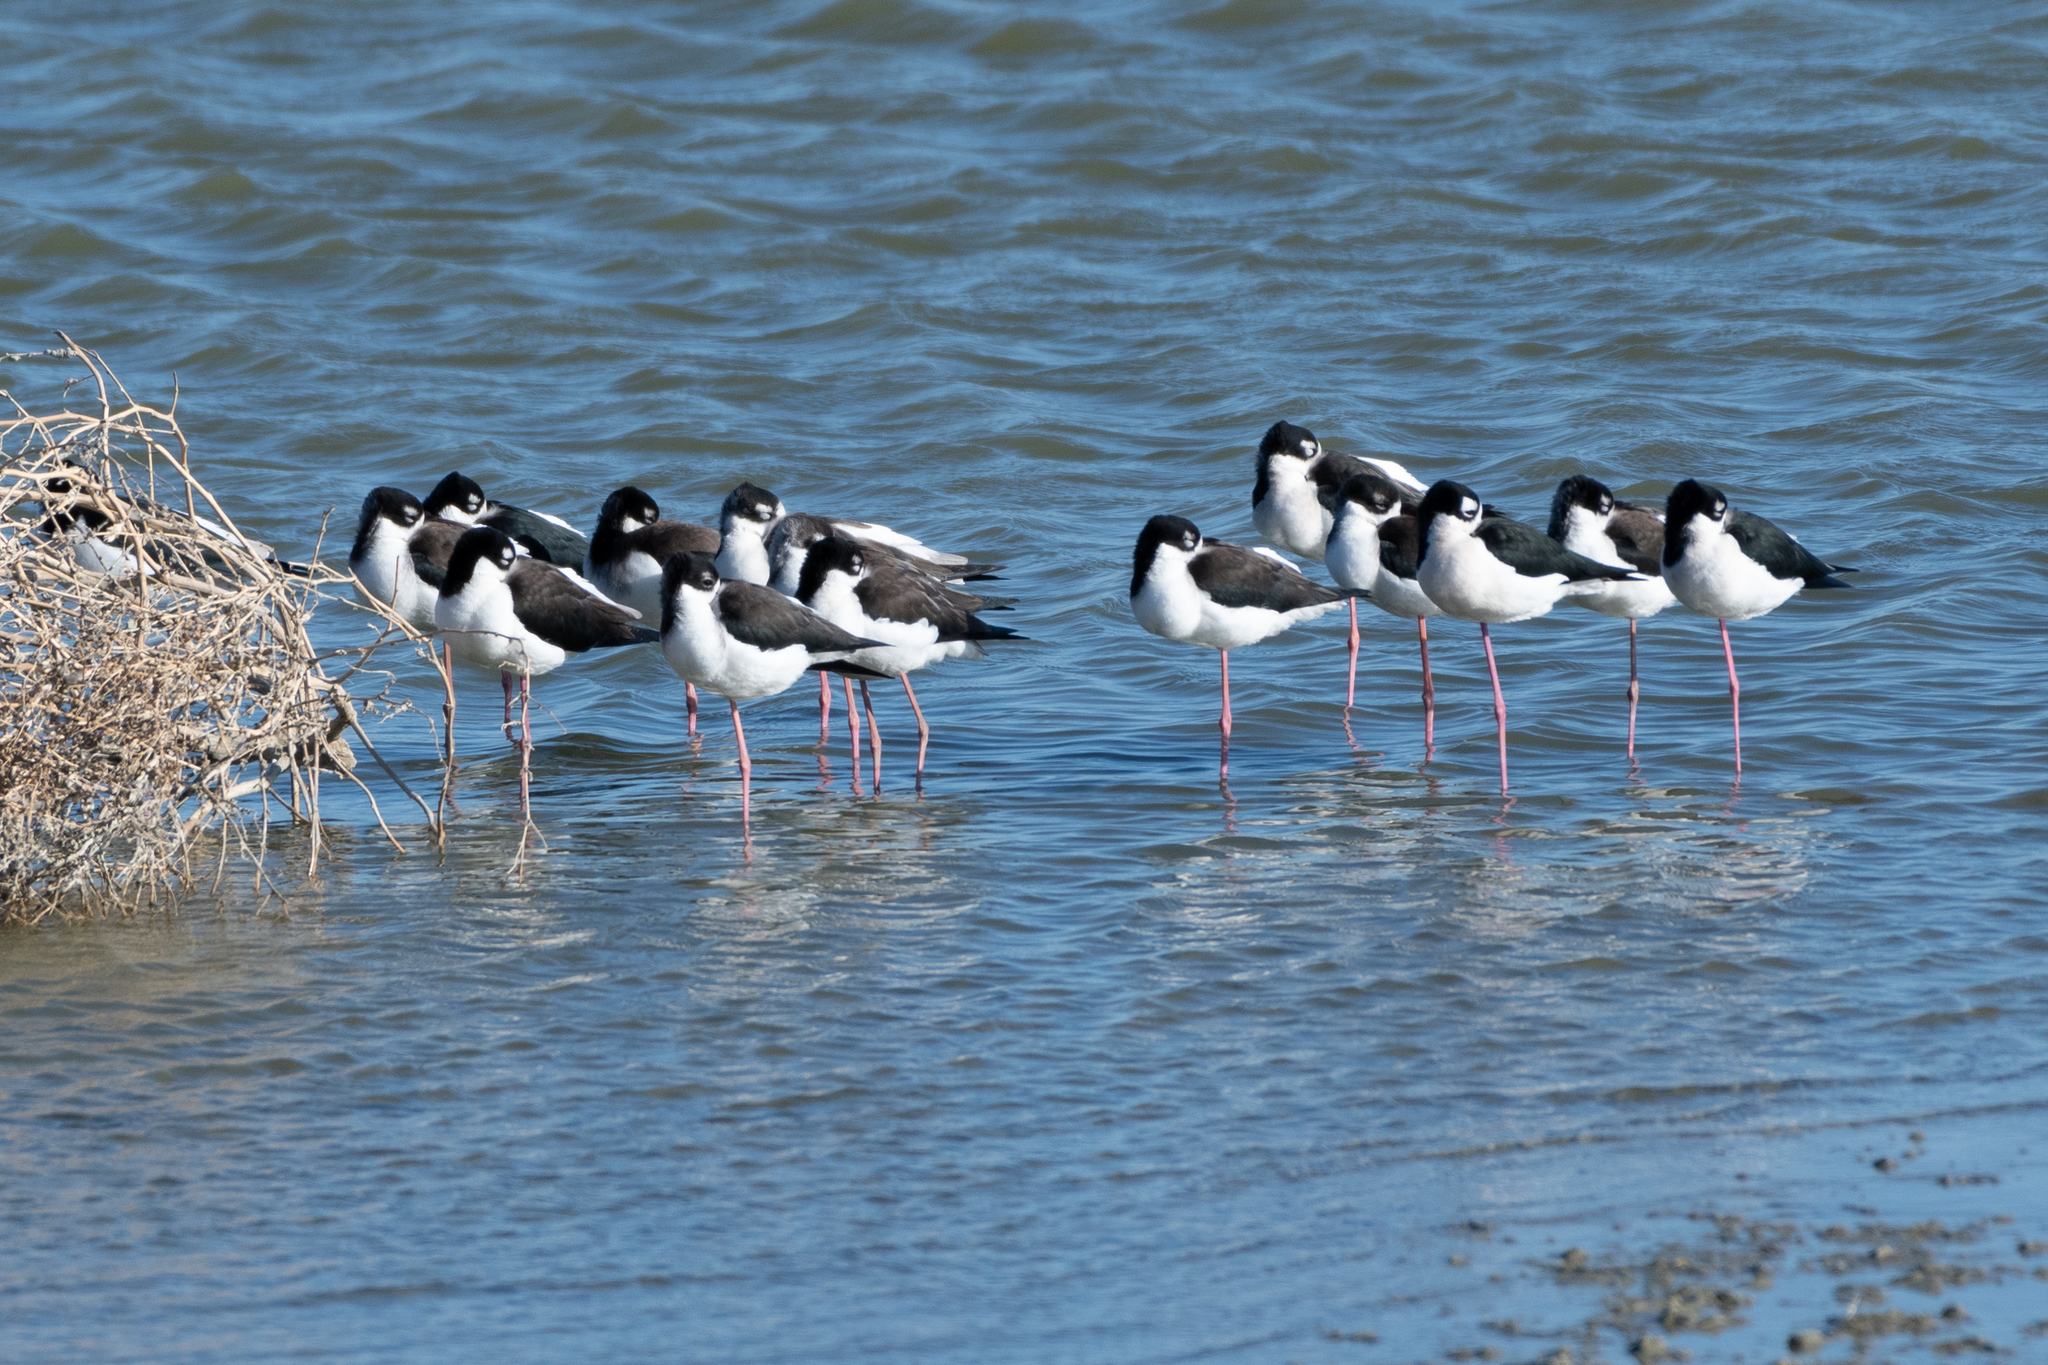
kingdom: Animalia
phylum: Chordata
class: Aves
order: Charadriiformes
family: Recurvirostridae
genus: Himantopus
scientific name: Himantopus mexicanus
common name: Black-necked stilt
